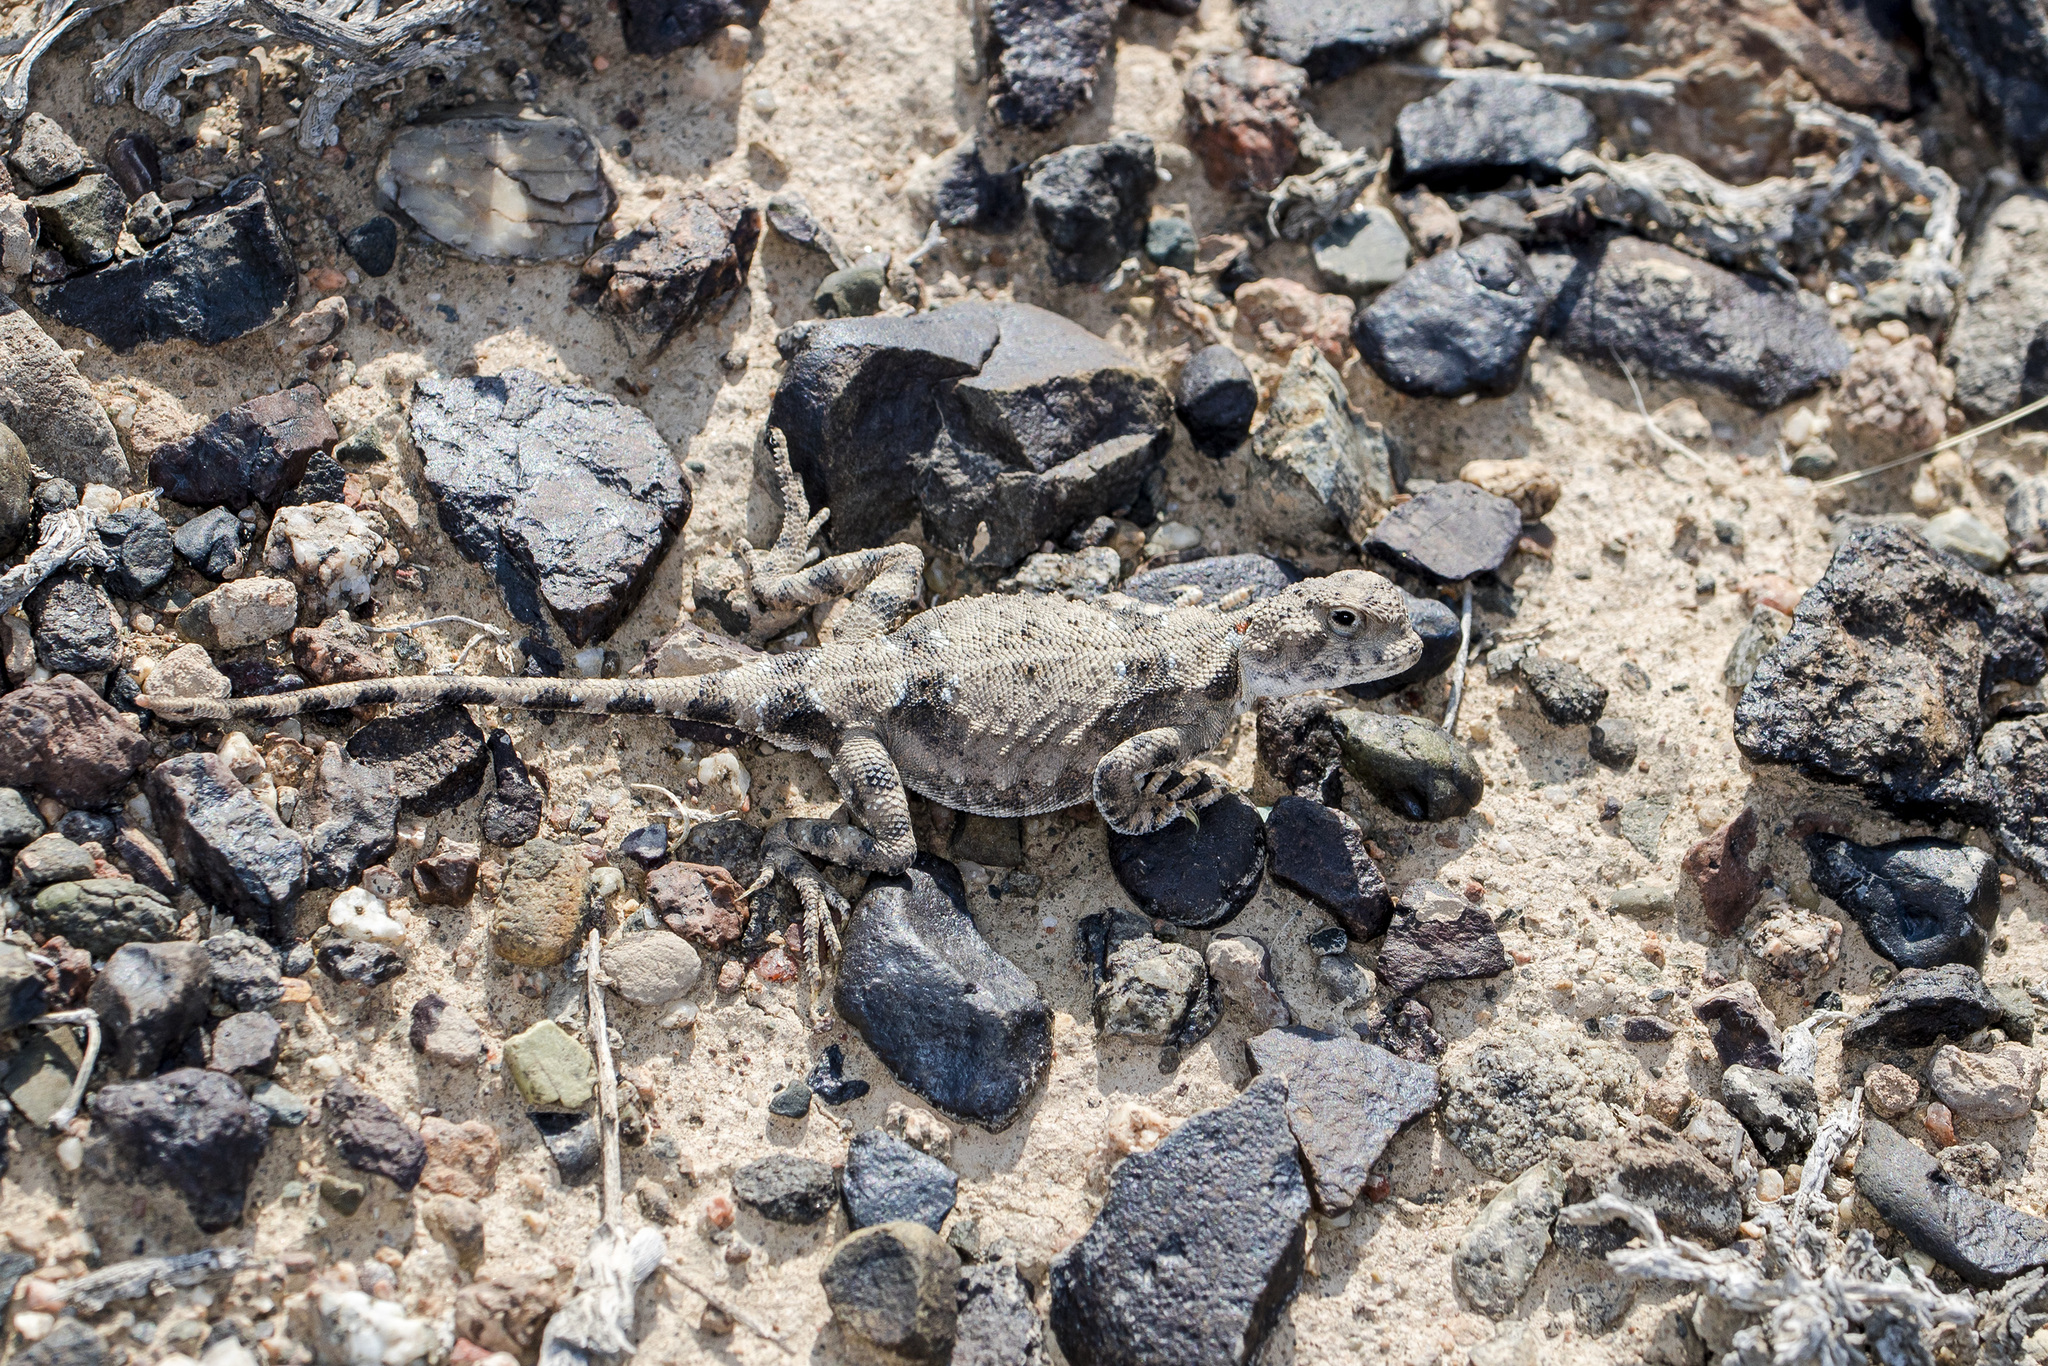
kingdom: Animalia
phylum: Chordata
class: Squamata
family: Agamidae
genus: Phrynocephalus
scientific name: Phrynocephalus helioscopus
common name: Sunwatcher
